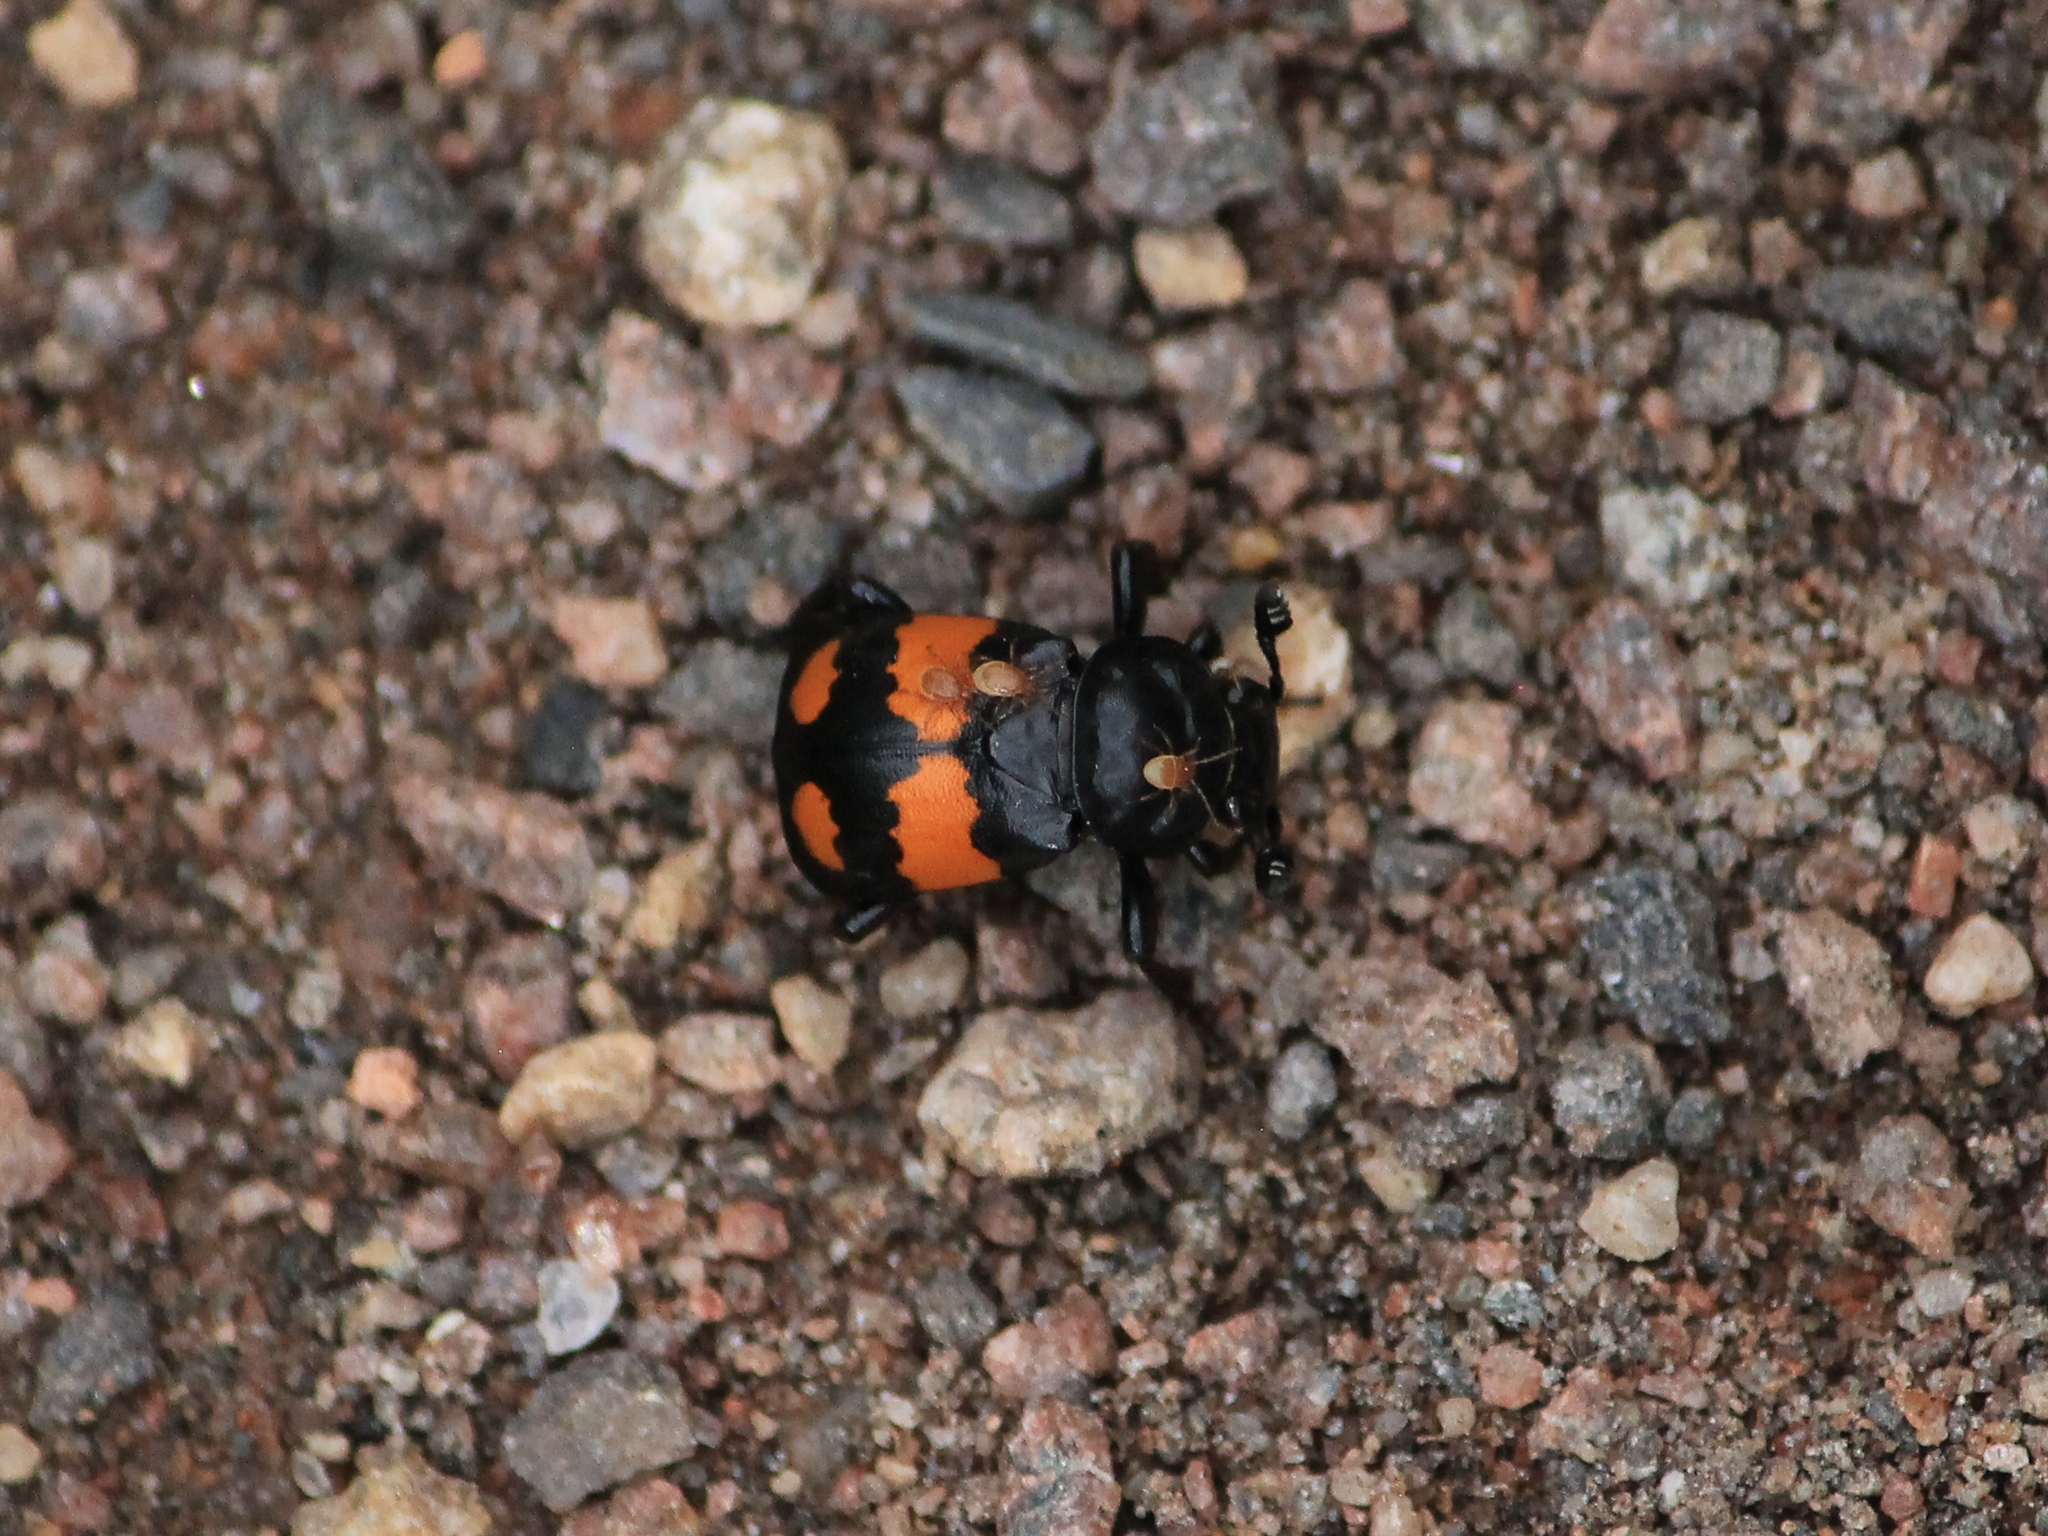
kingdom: Animalia
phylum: Arthropoda
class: Insecta
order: Coleoptera
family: Staphylinidae
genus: Nicrophorus
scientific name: Nicrophorus vespilloides
